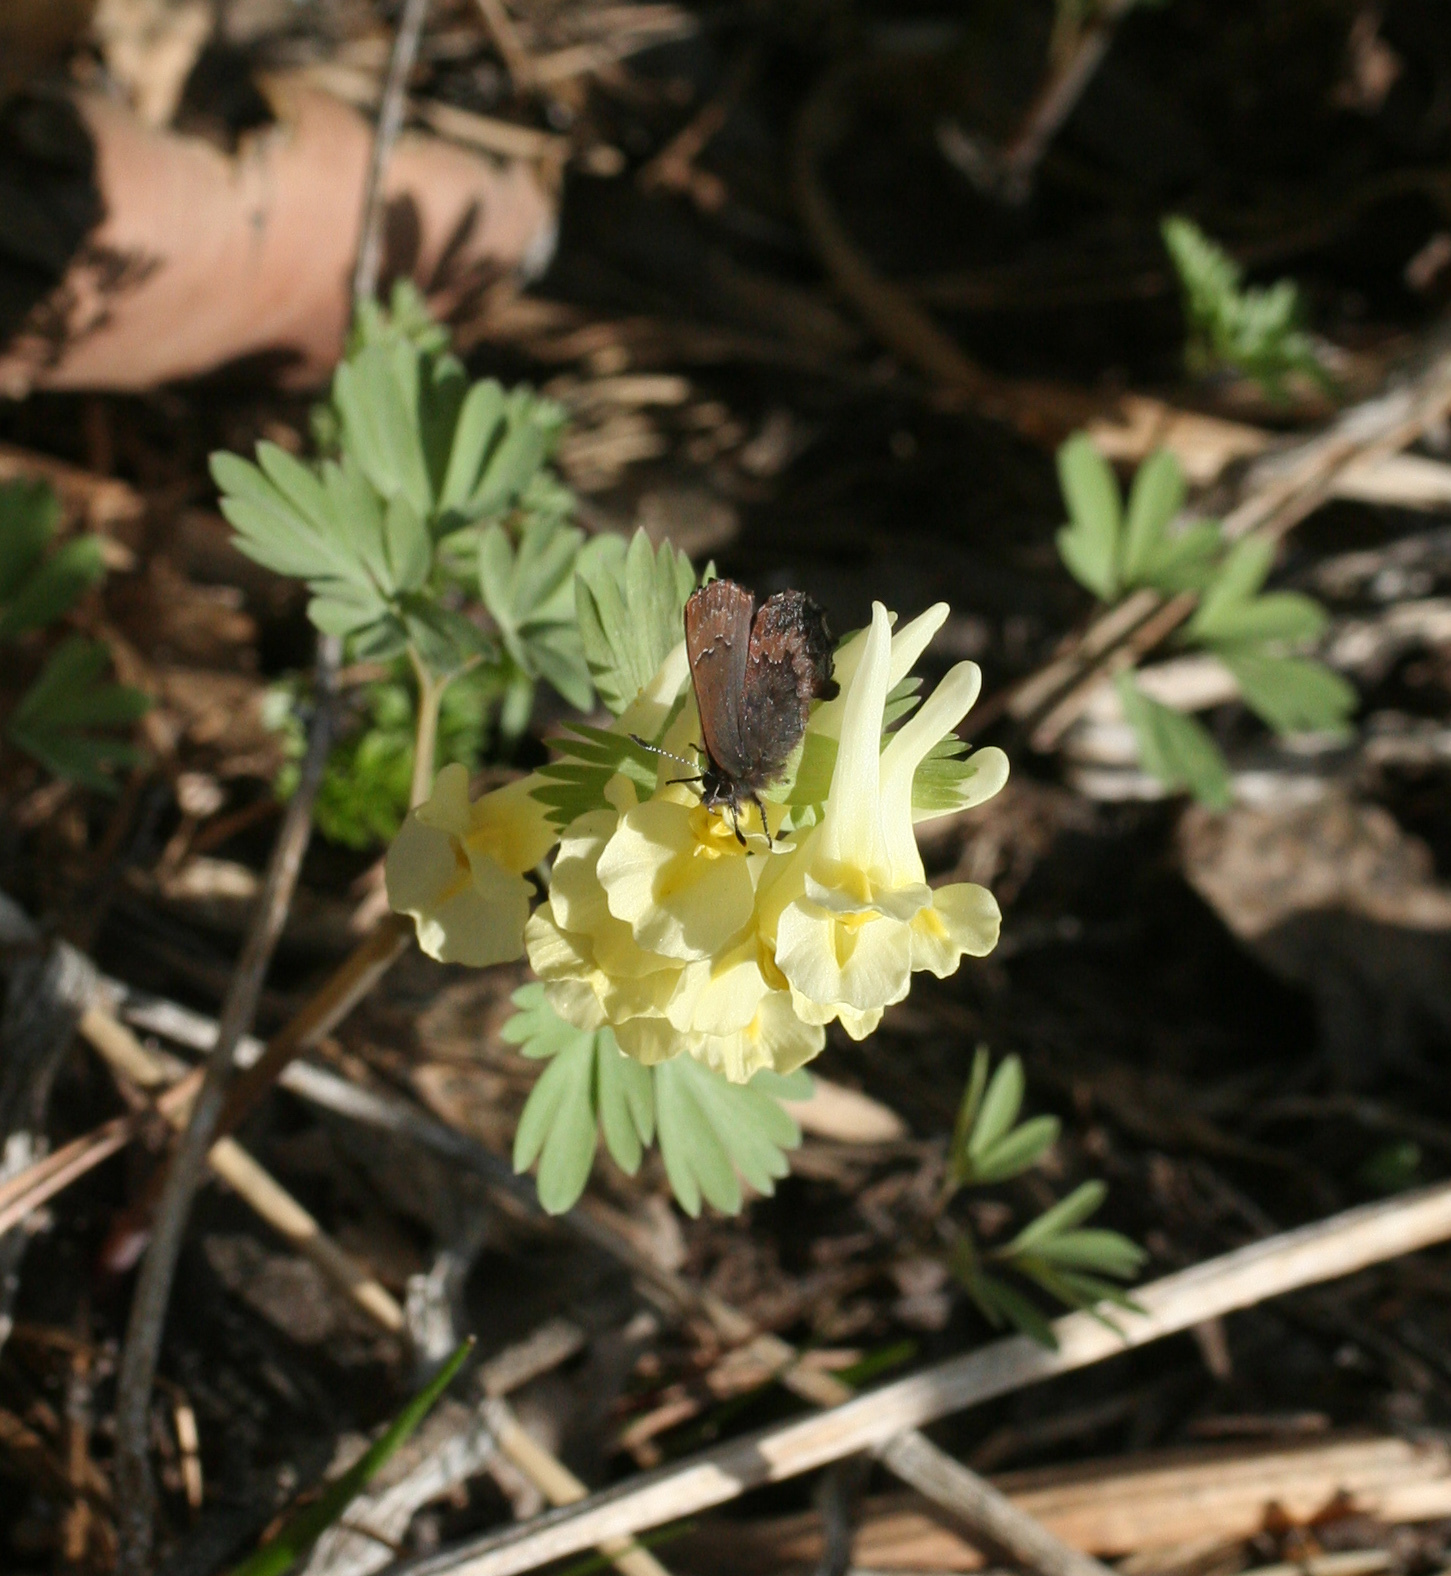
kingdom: Animalia
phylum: Arthropoda
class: Insecta
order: Lepidoptera
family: Lycaenidae
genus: Ginzia
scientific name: Ginzia Ahlbergia frivaldszkyi
